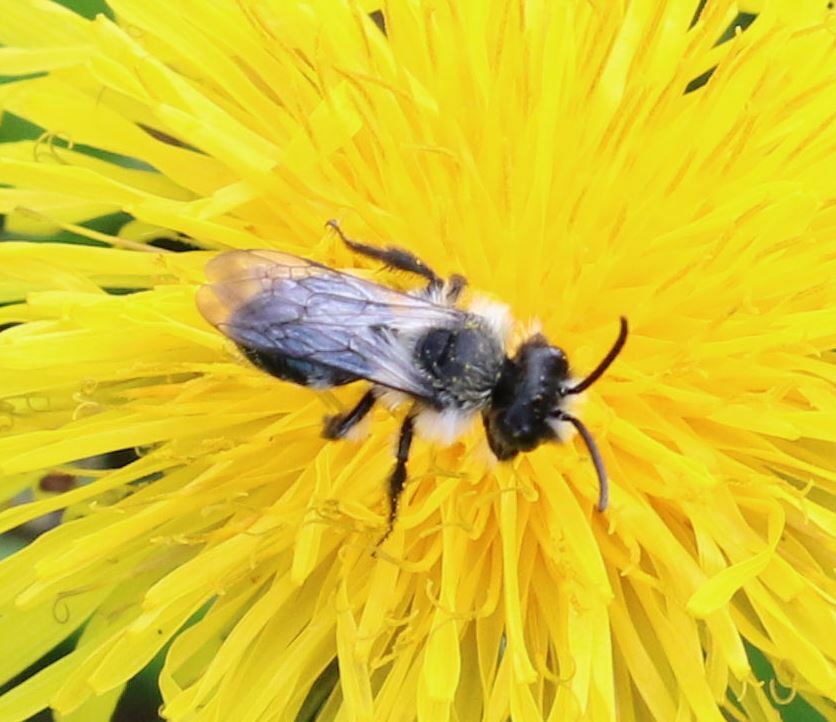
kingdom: Animalia
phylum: Arthropoda
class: Insecta
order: Hymenoptera
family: Andrenidae
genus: Andrena
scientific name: Andrena cineraria
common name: Ashy mining bee
